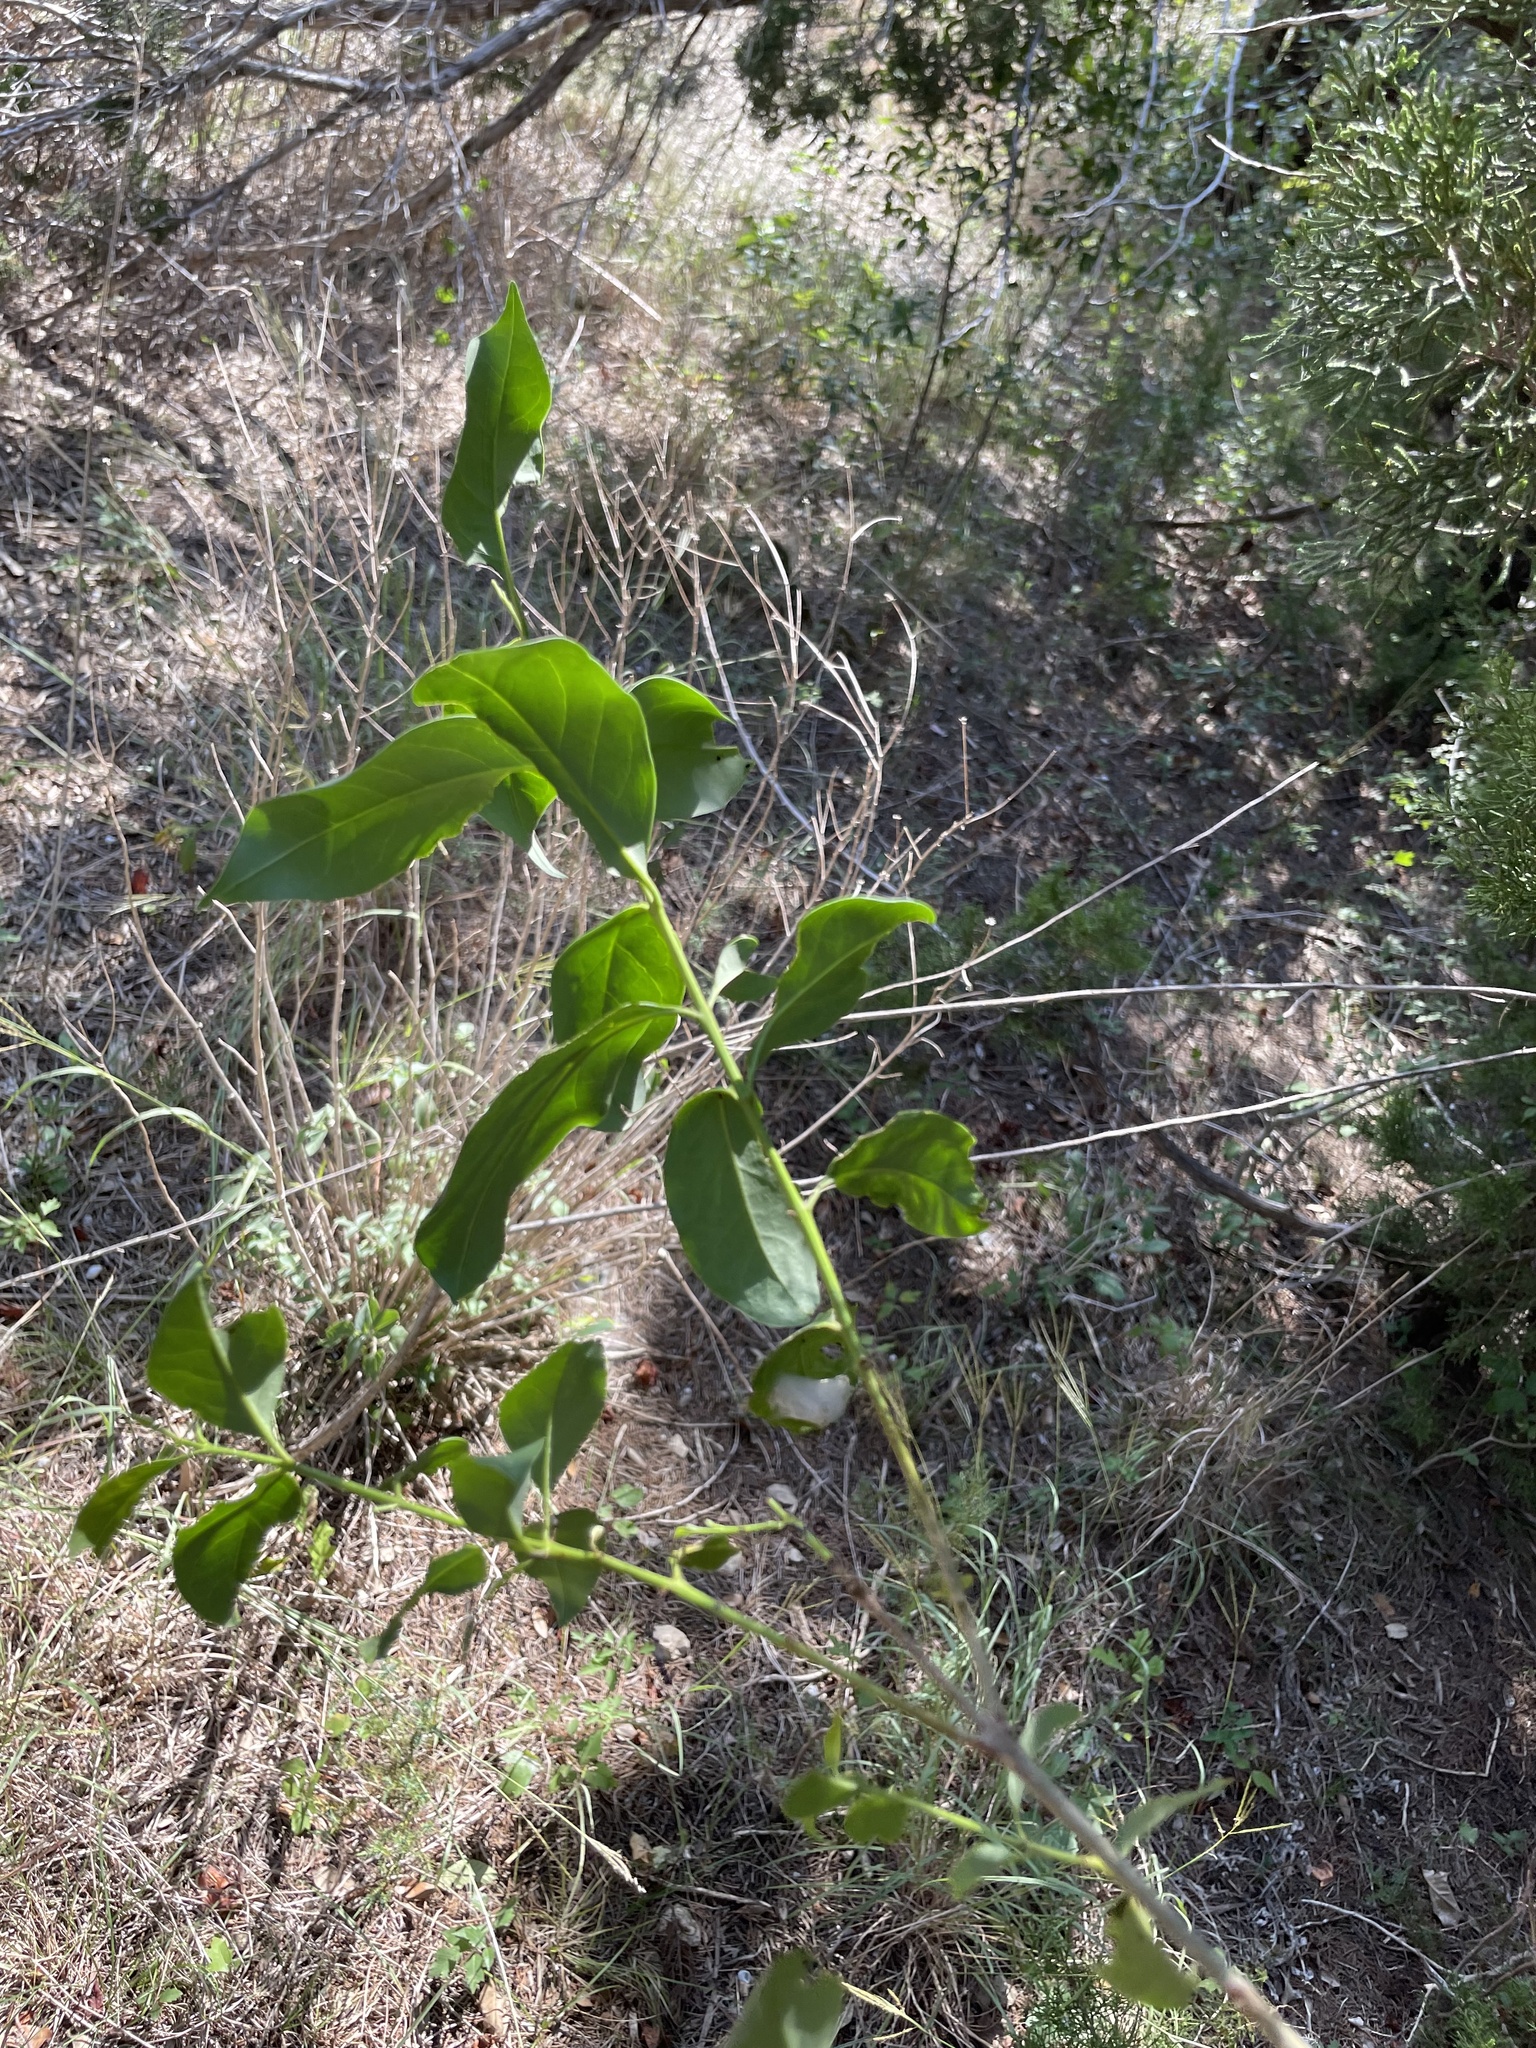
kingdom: Plantae
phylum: Tracheophyta
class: Magnoliopsida
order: Lamiales
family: Oleaceae
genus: Ligustrum
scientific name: Ligustrum lucidum
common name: Glossy privet
